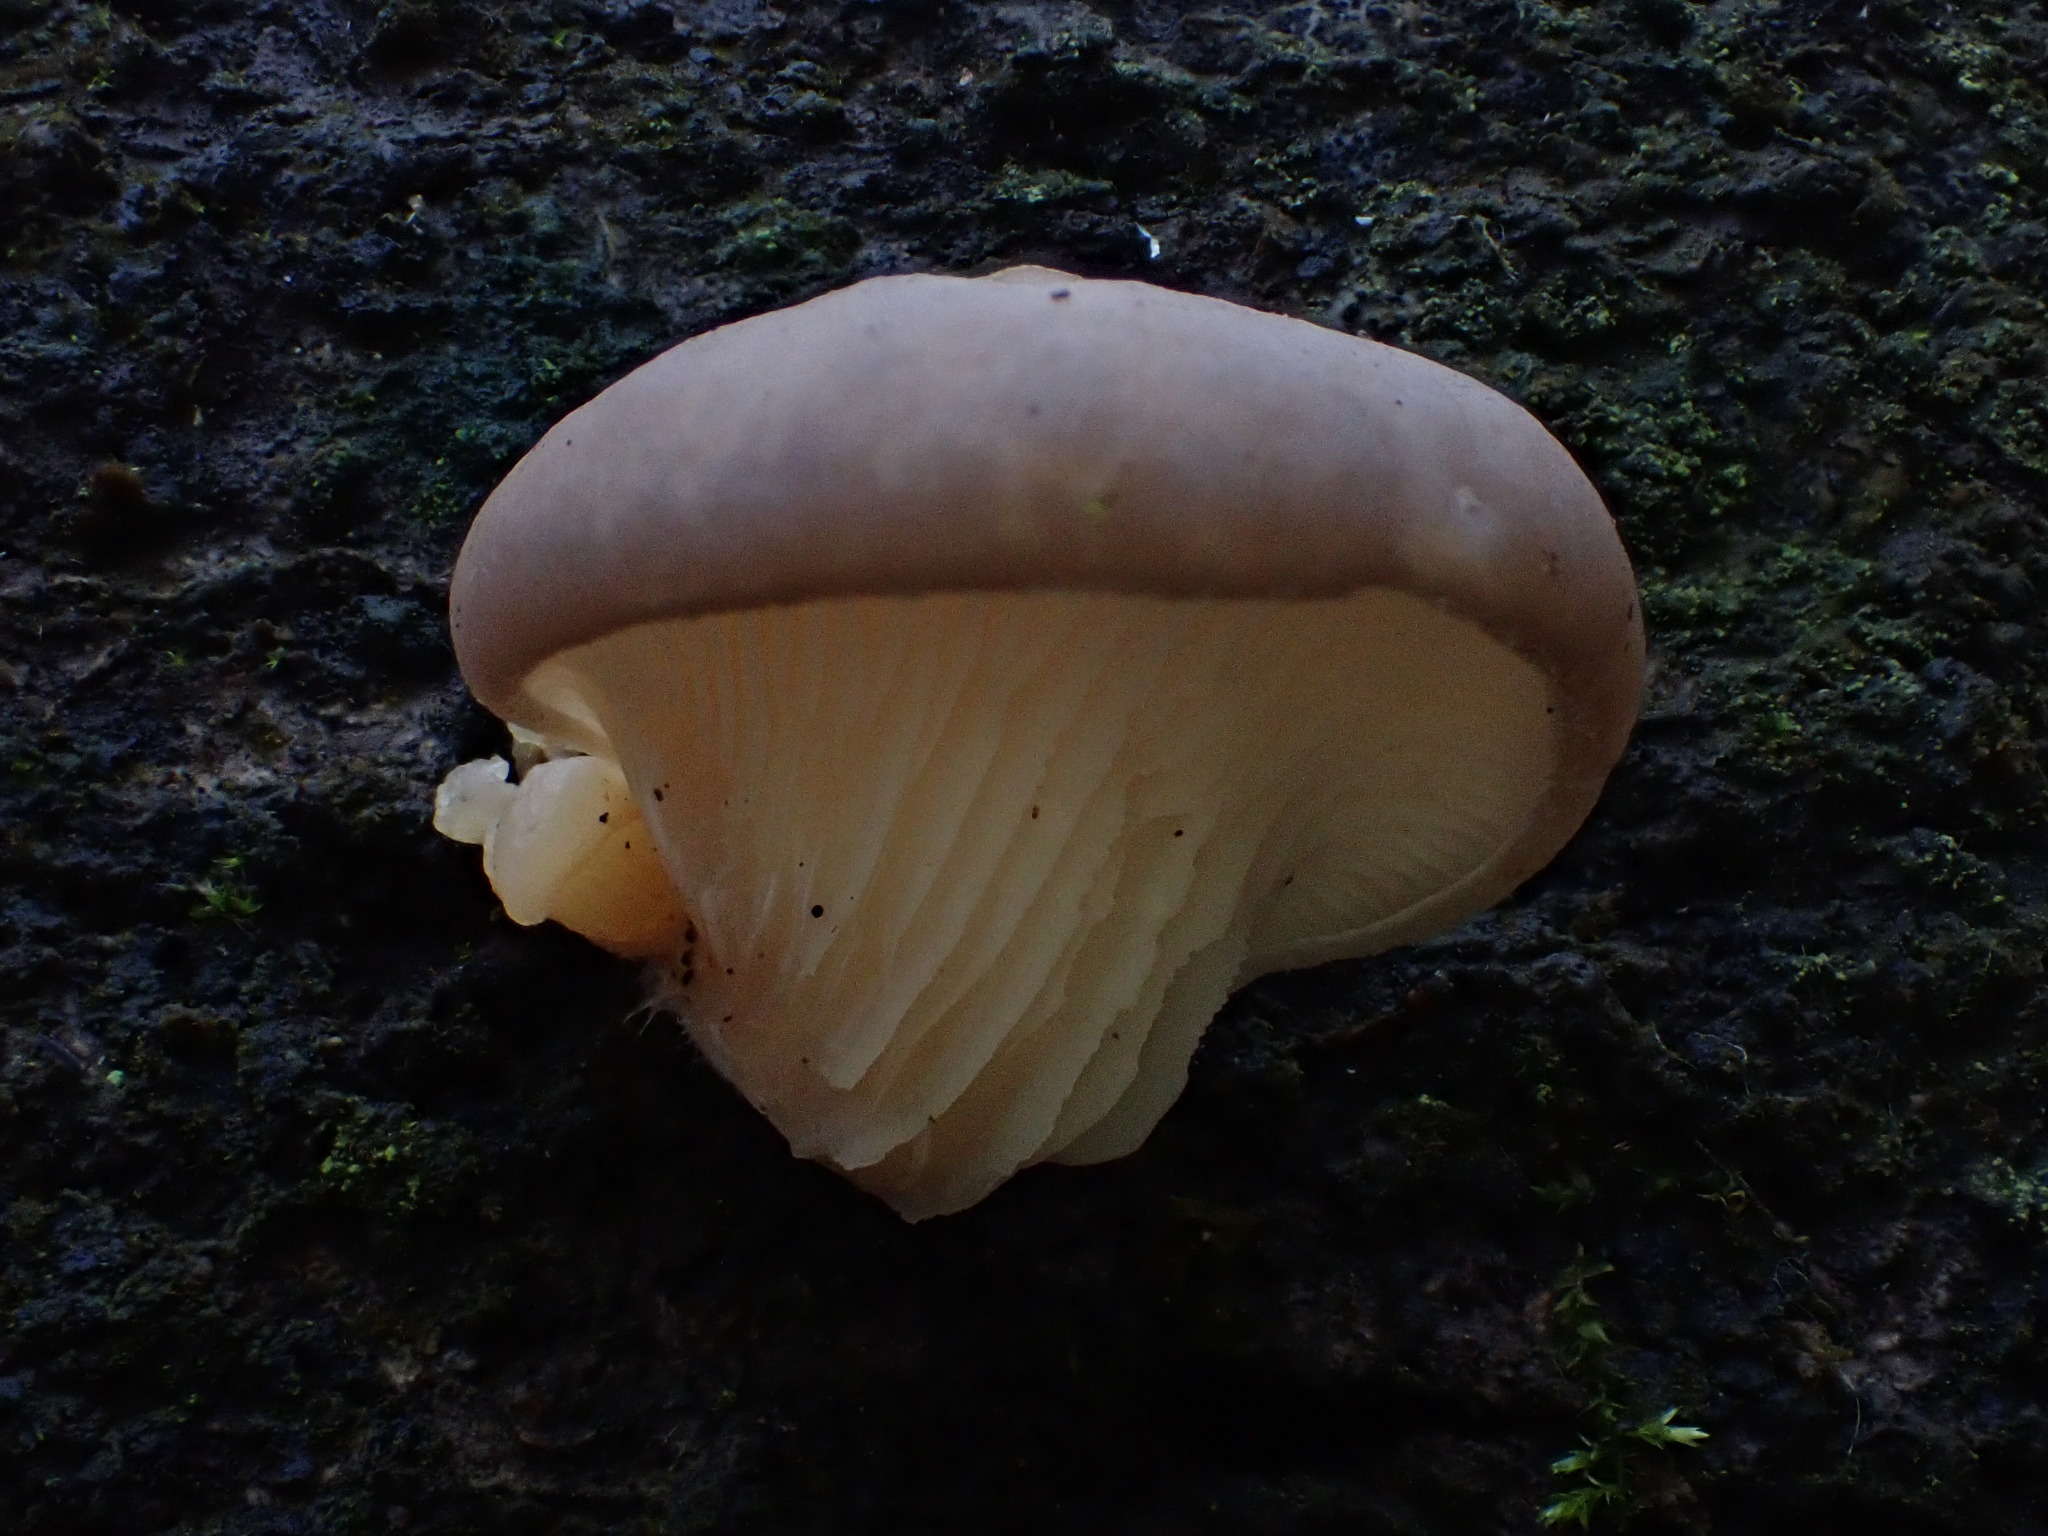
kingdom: Fungi
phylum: Basidiomycota
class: Agaricomycetes
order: Agaricales
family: Pleurotaceae
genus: Pleurotus
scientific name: Pleurotus ostreatus
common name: Oyster mushroom
